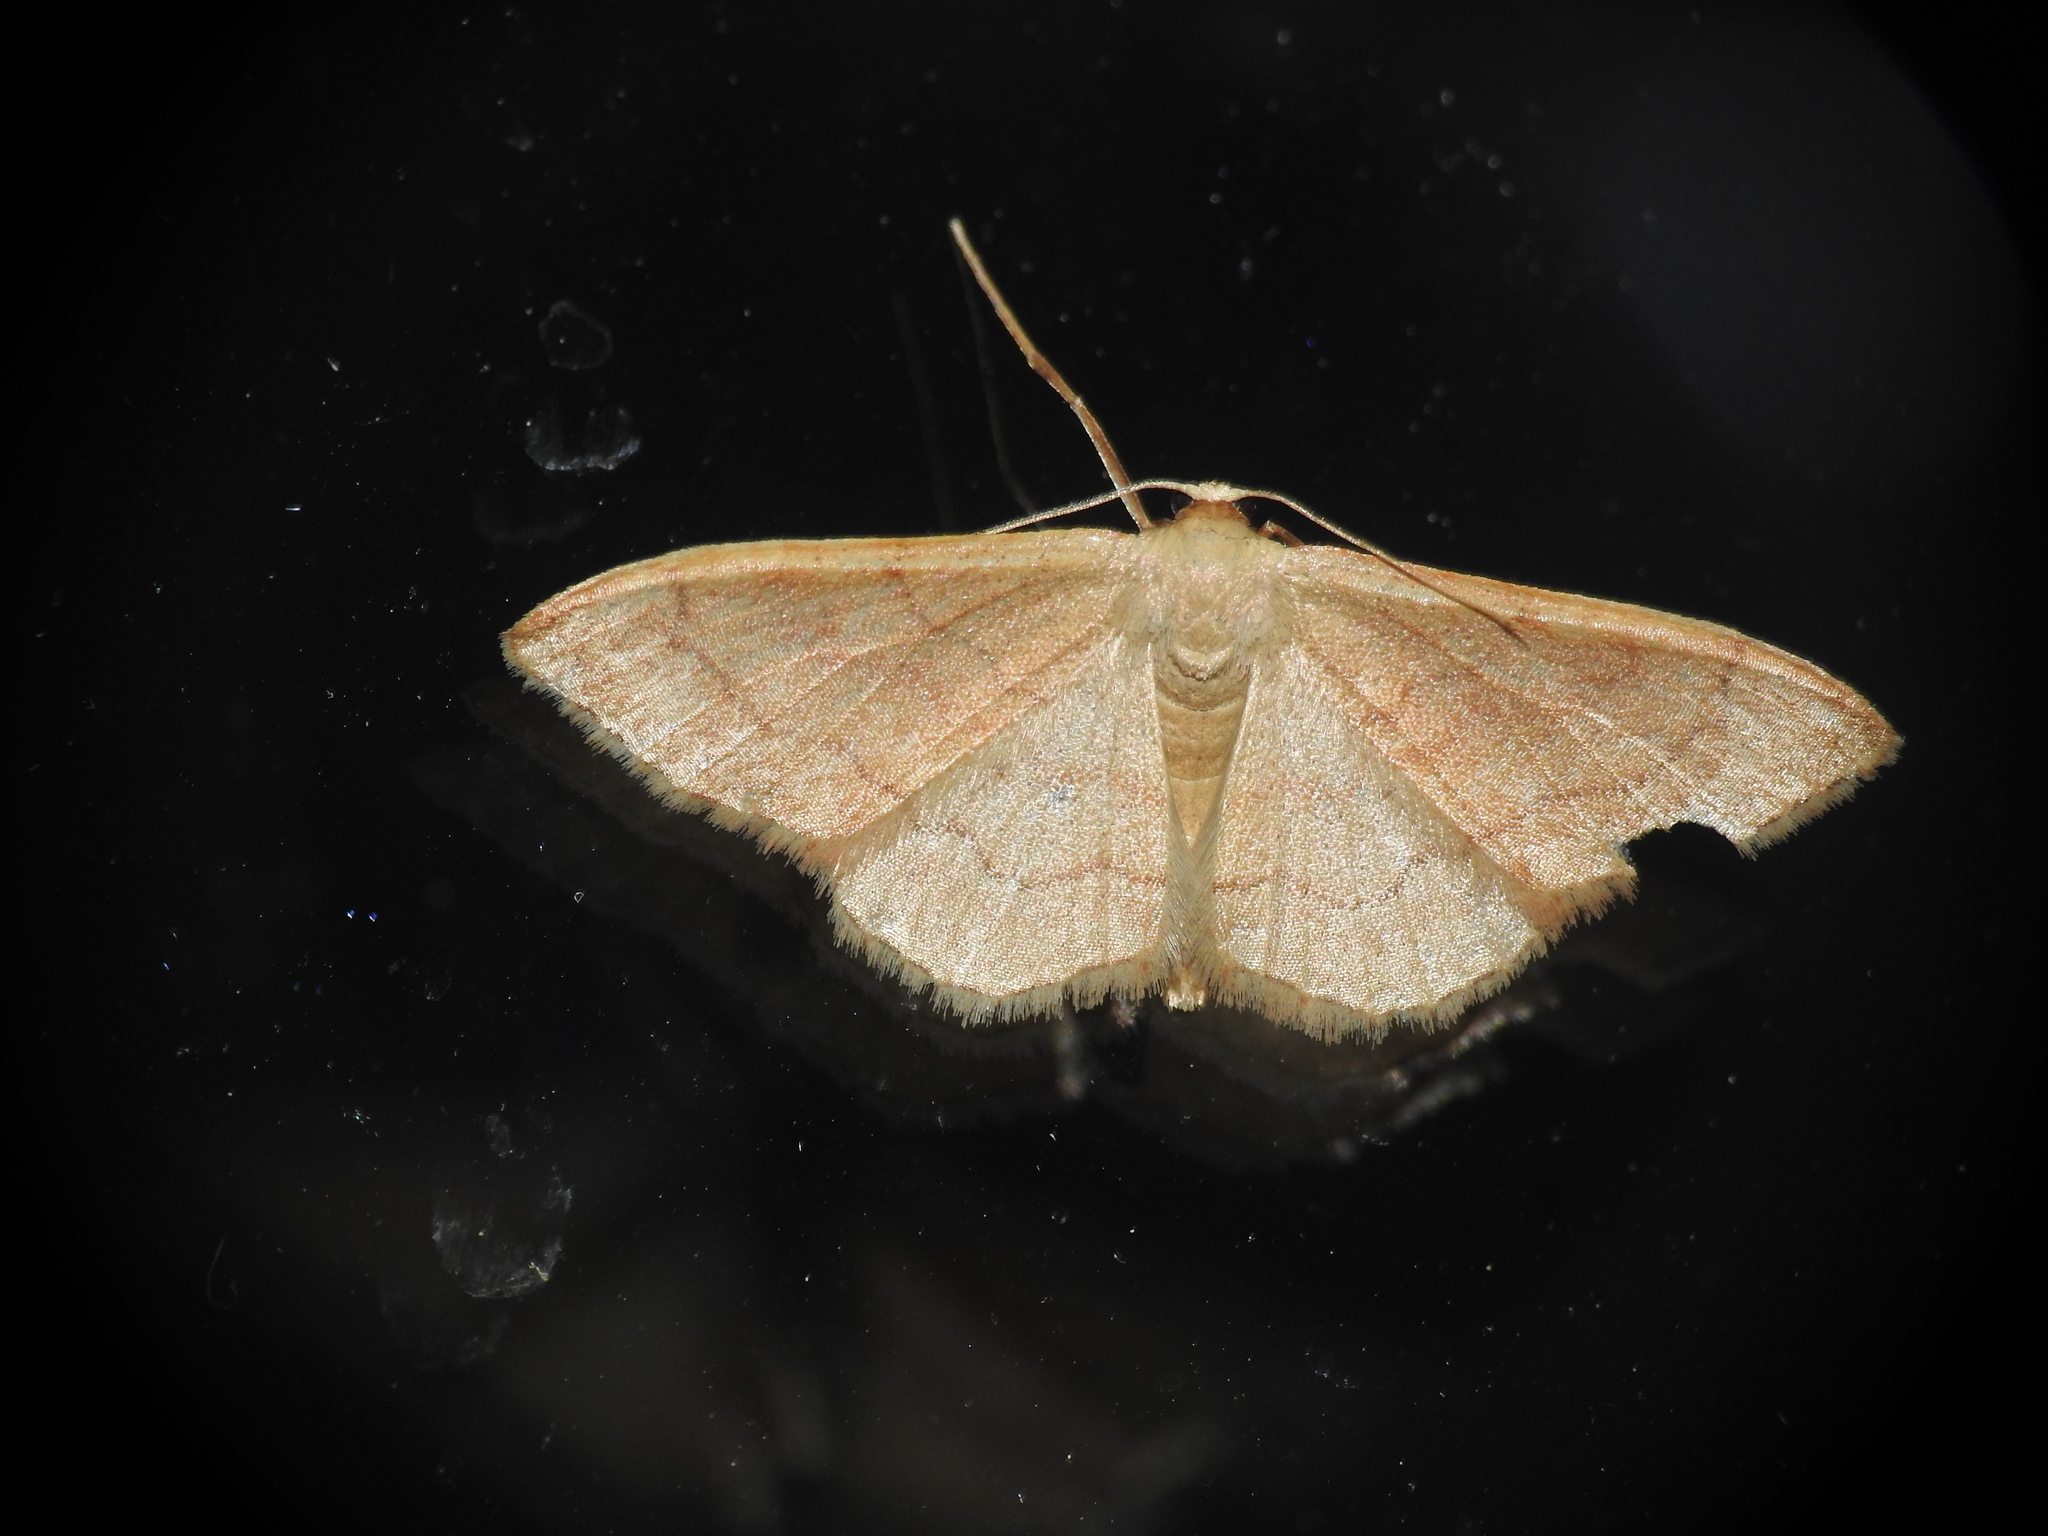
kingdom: Animalia
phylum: Arthropoda
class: Insecta
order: Lepidoptera
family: Geometridae
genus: Idaea
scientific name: Idaea bilinearia
